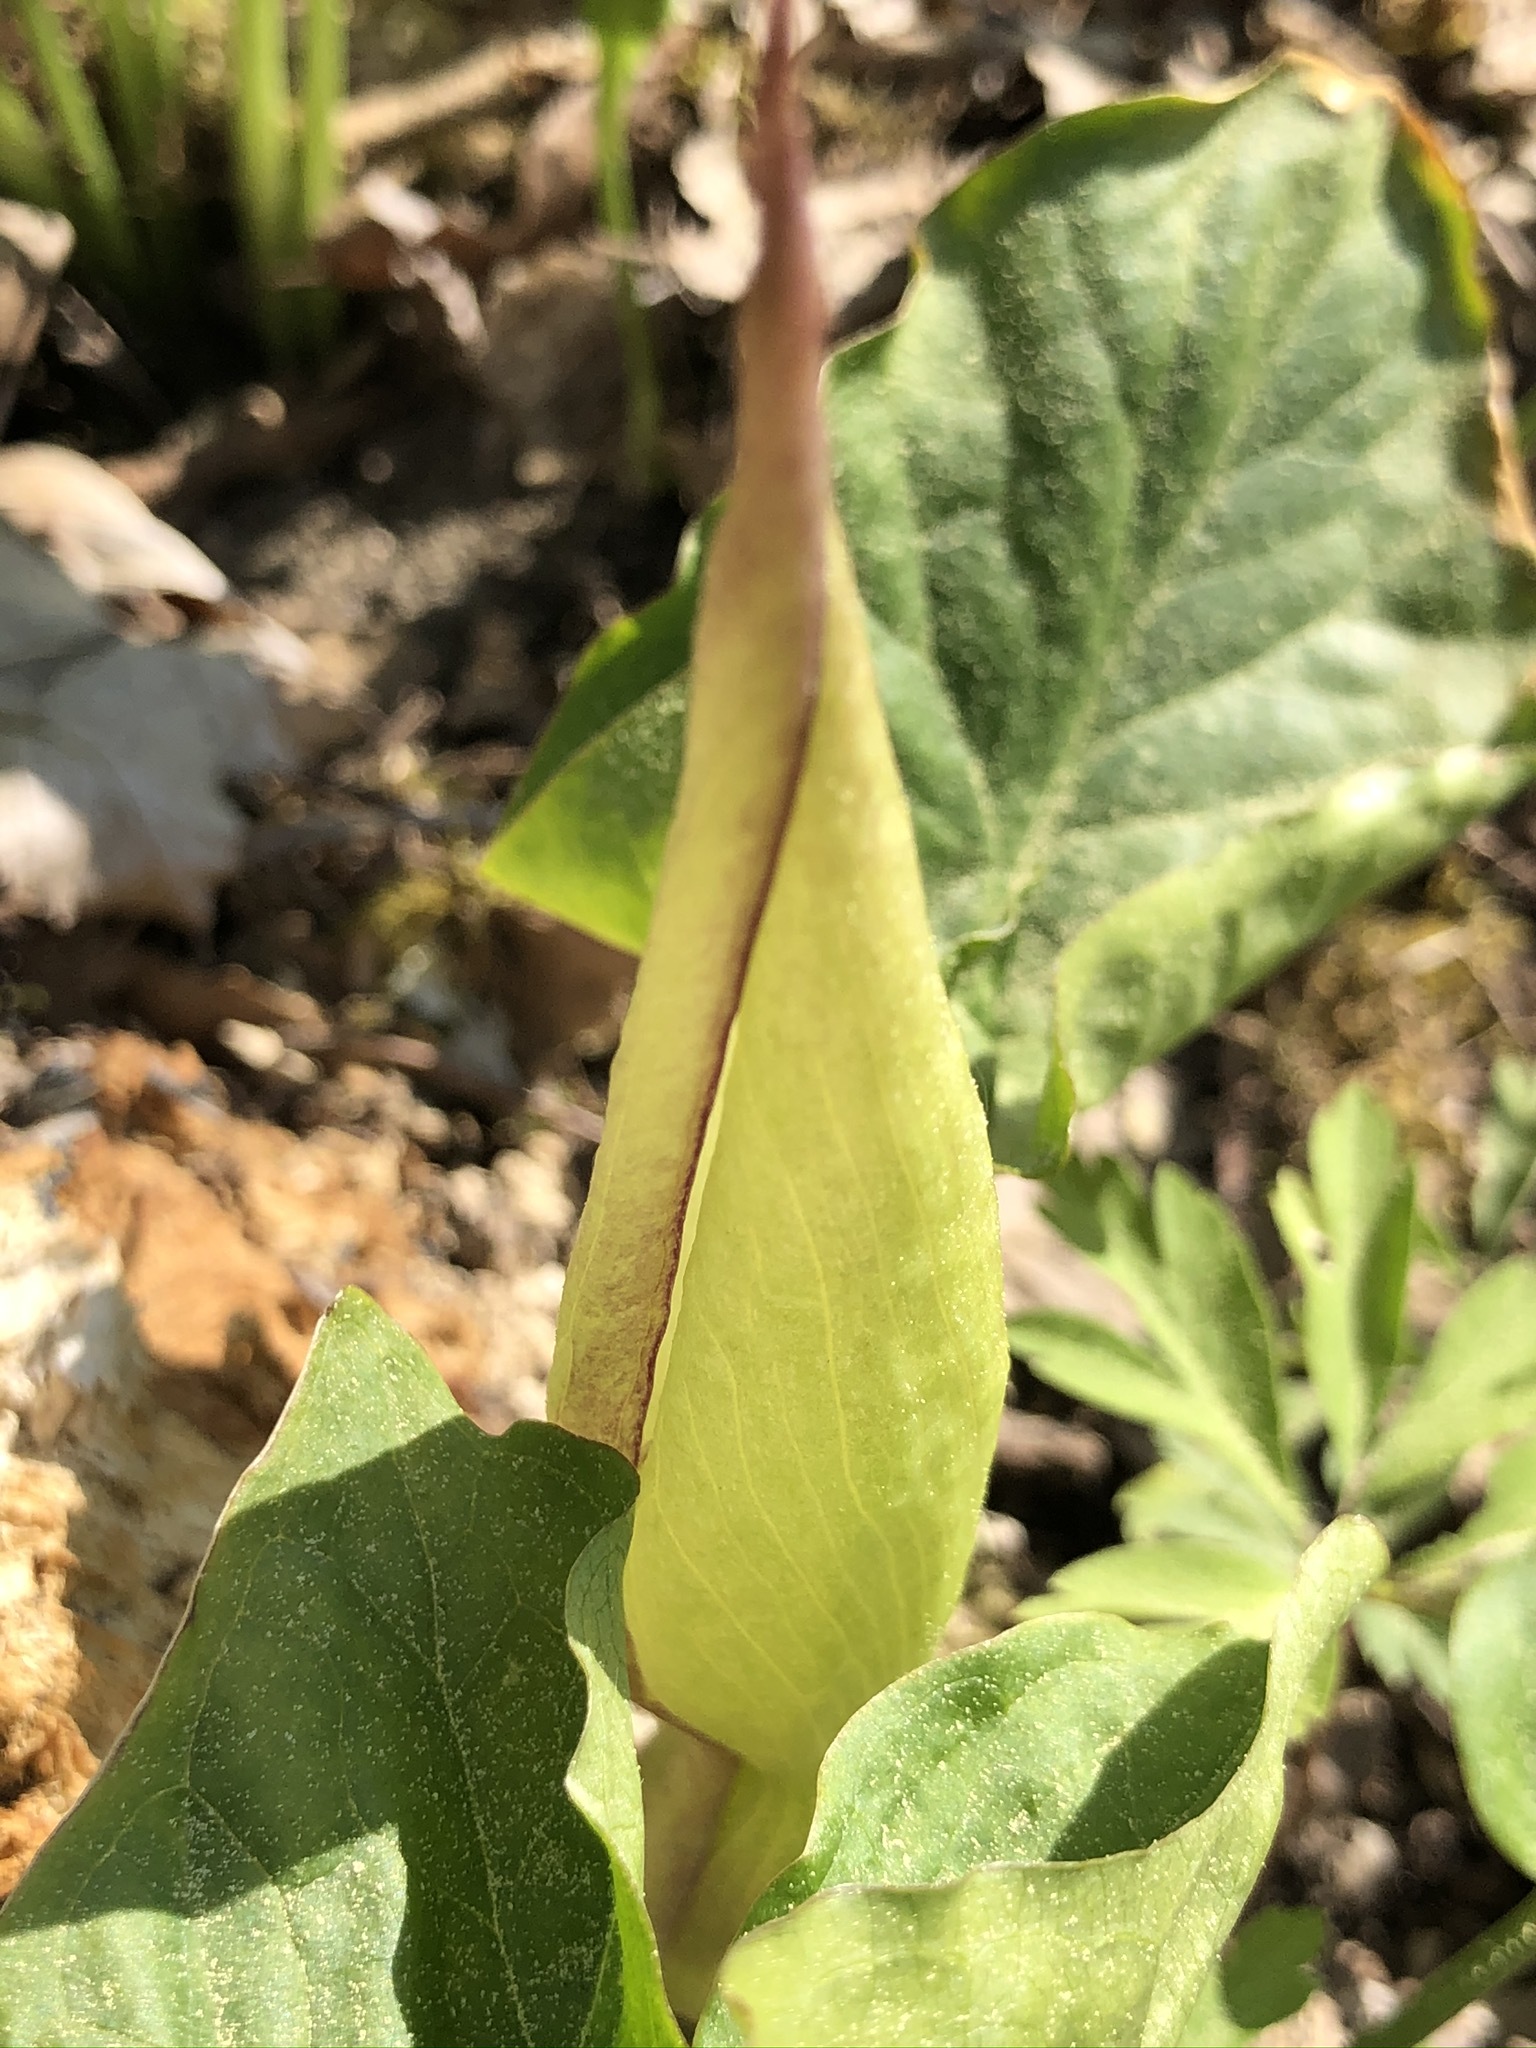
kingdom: Plantae
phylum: Tracheophyta
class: Liliopsida
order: Alismatales
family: Araceae
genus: Arum
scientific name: Arum maculatum
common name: Lords-and-ladies
